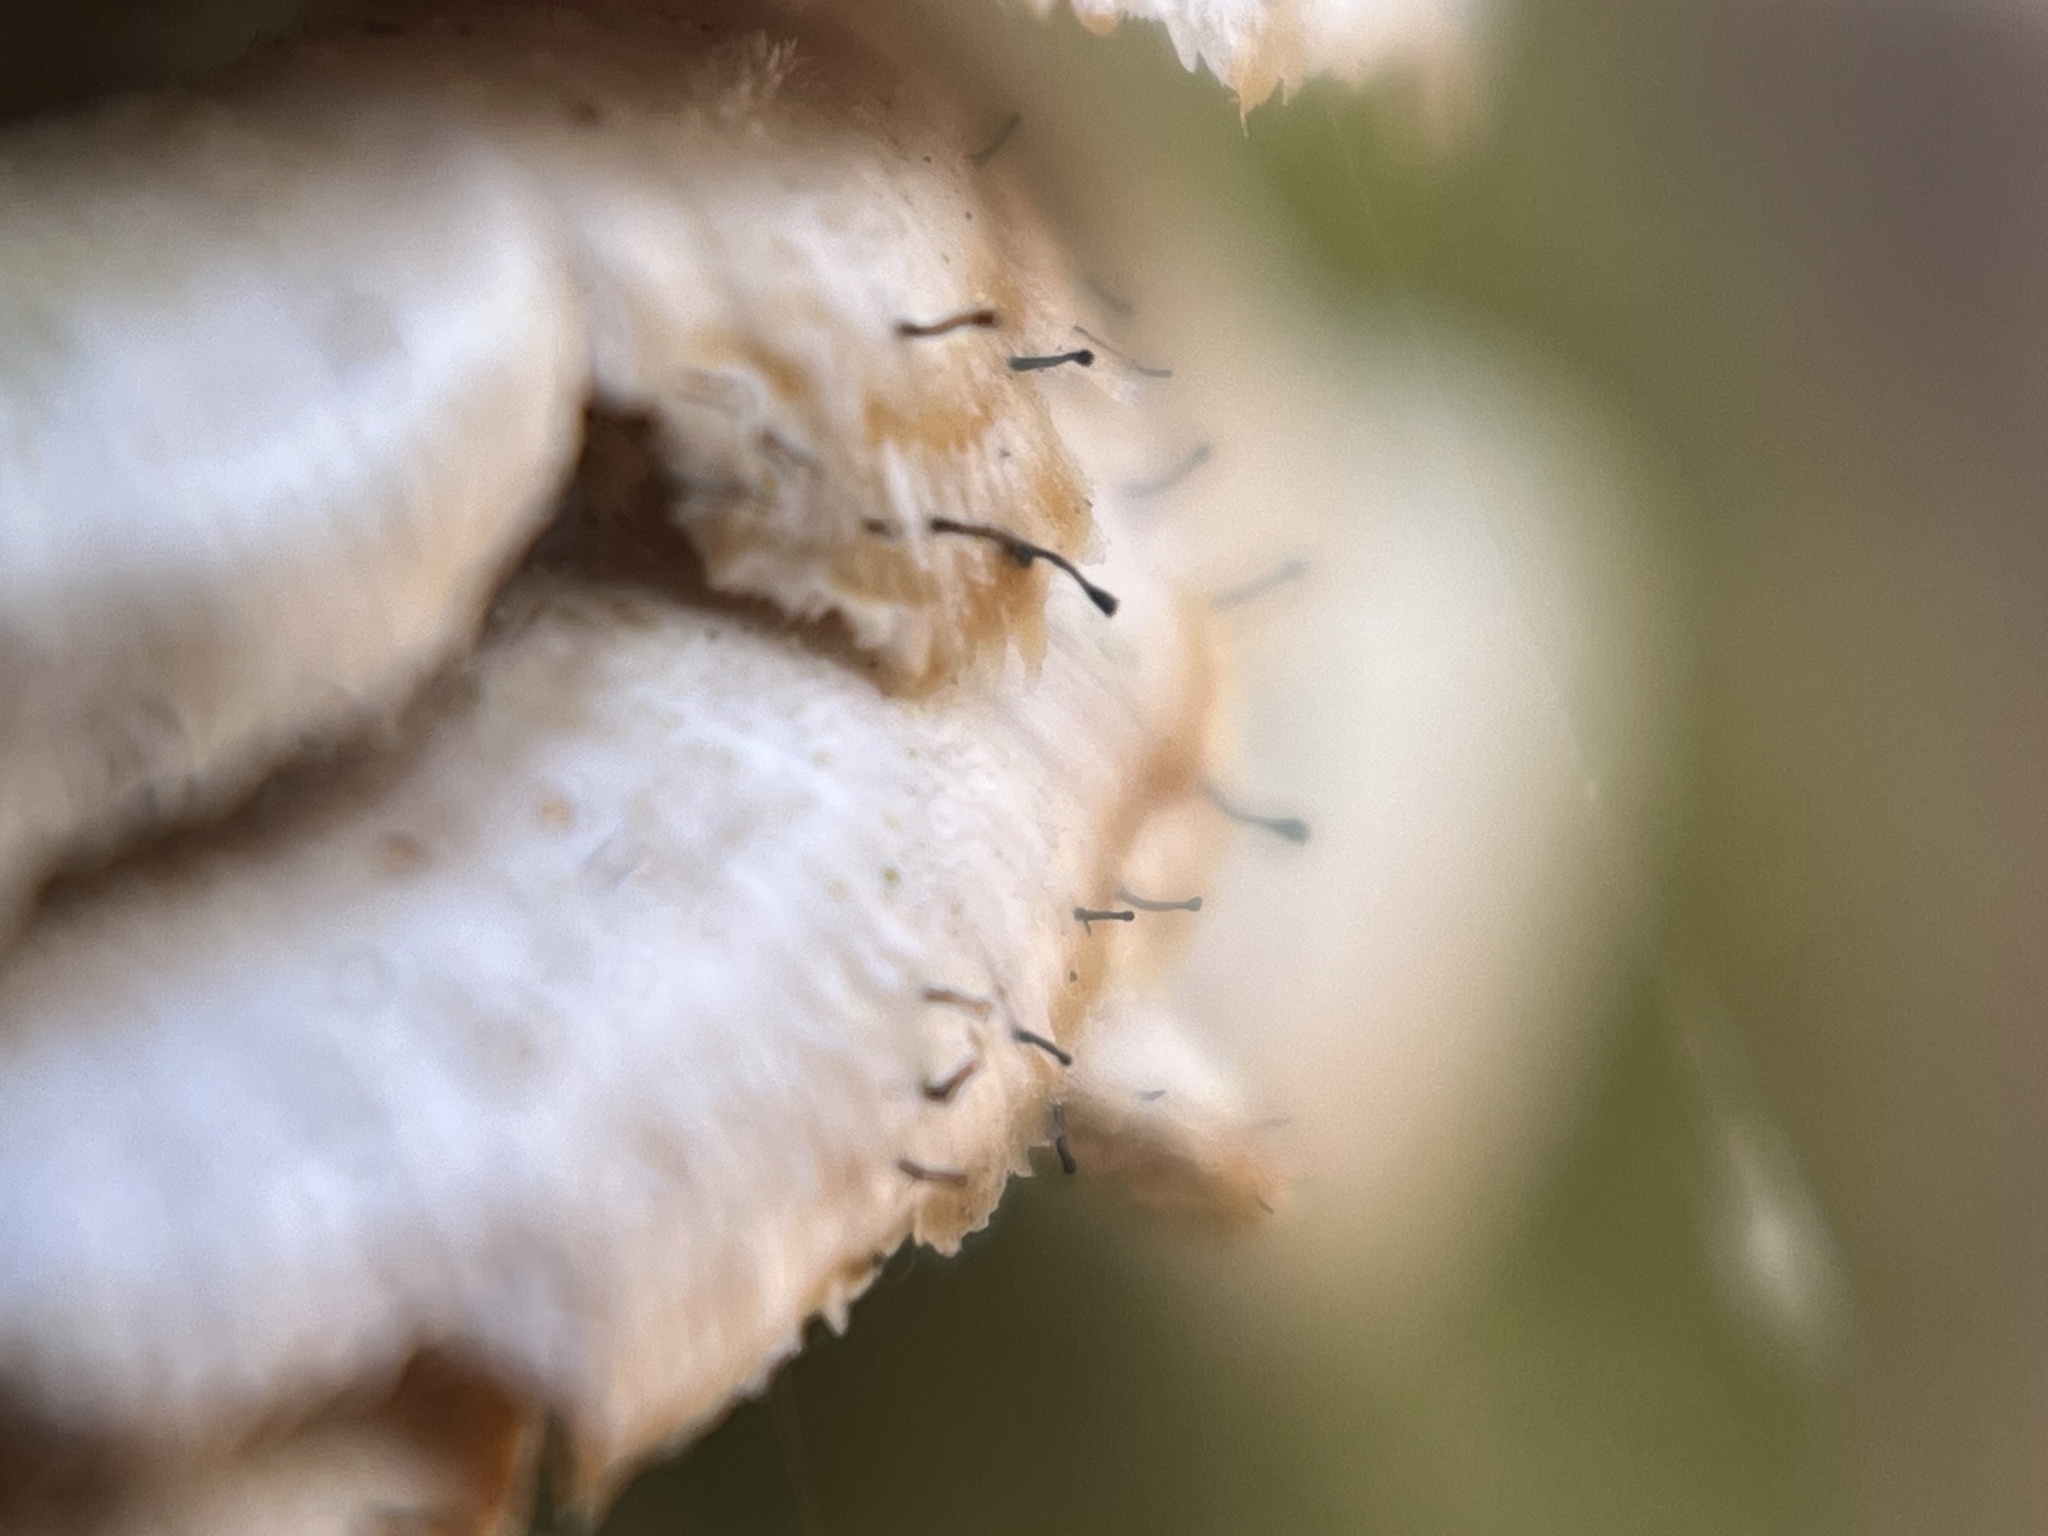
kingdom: Fungi
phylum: Ascomycota
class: Eurotiomycetes
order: Mycocaliciales
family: Mycocaliciaceae
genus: Phaeocalicium
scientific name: Phaeocalicium polyporaeum
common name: Fairy pins
